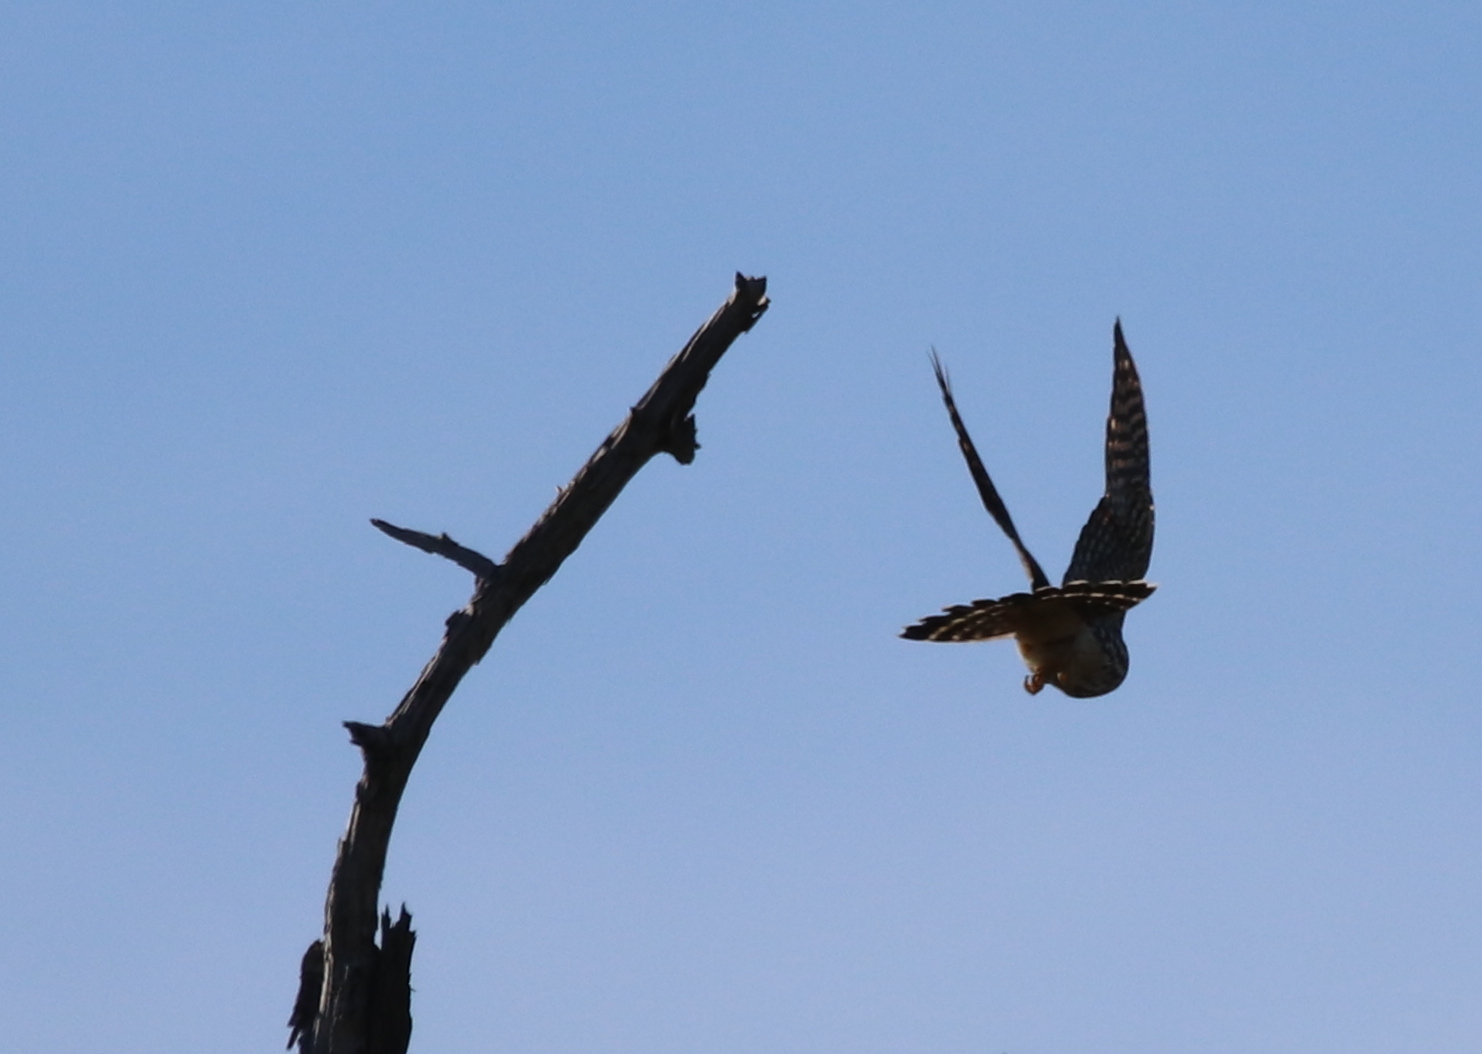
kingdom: Animalia
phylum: Chordata
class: Aves
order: Falconiformes
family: Falconidae
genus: Falco
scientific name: Falco columbarius
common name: Merlin
